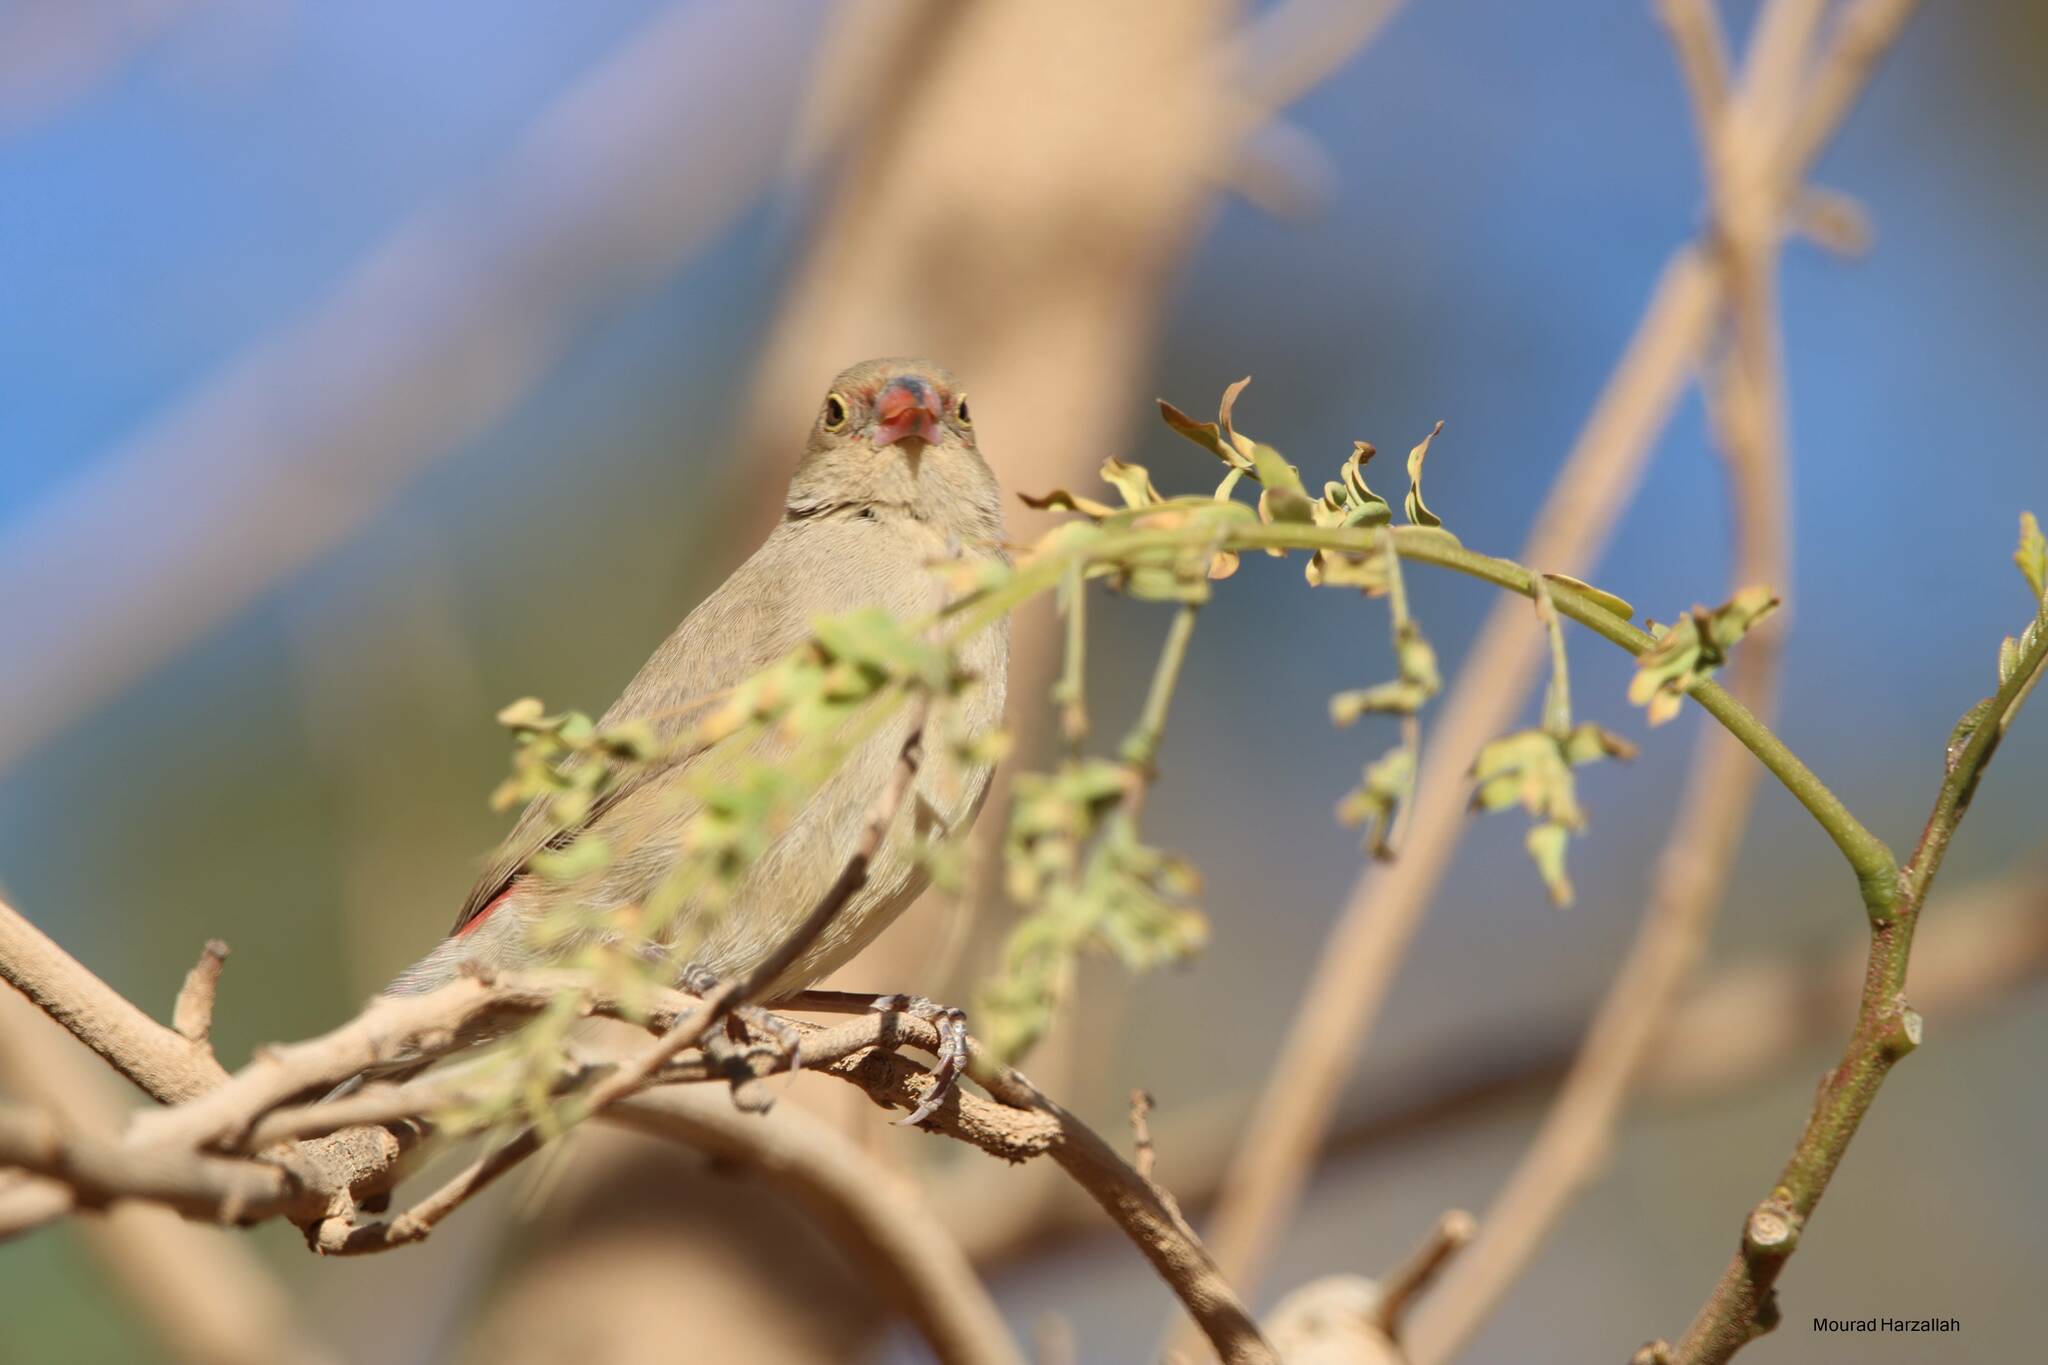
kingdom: Animalia
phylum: Chordata
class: Aves
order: Passeriformes
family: Estrildidae
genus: Lagonosticta
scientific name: Lagonosticta senegala
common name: Red-billed firefinch
